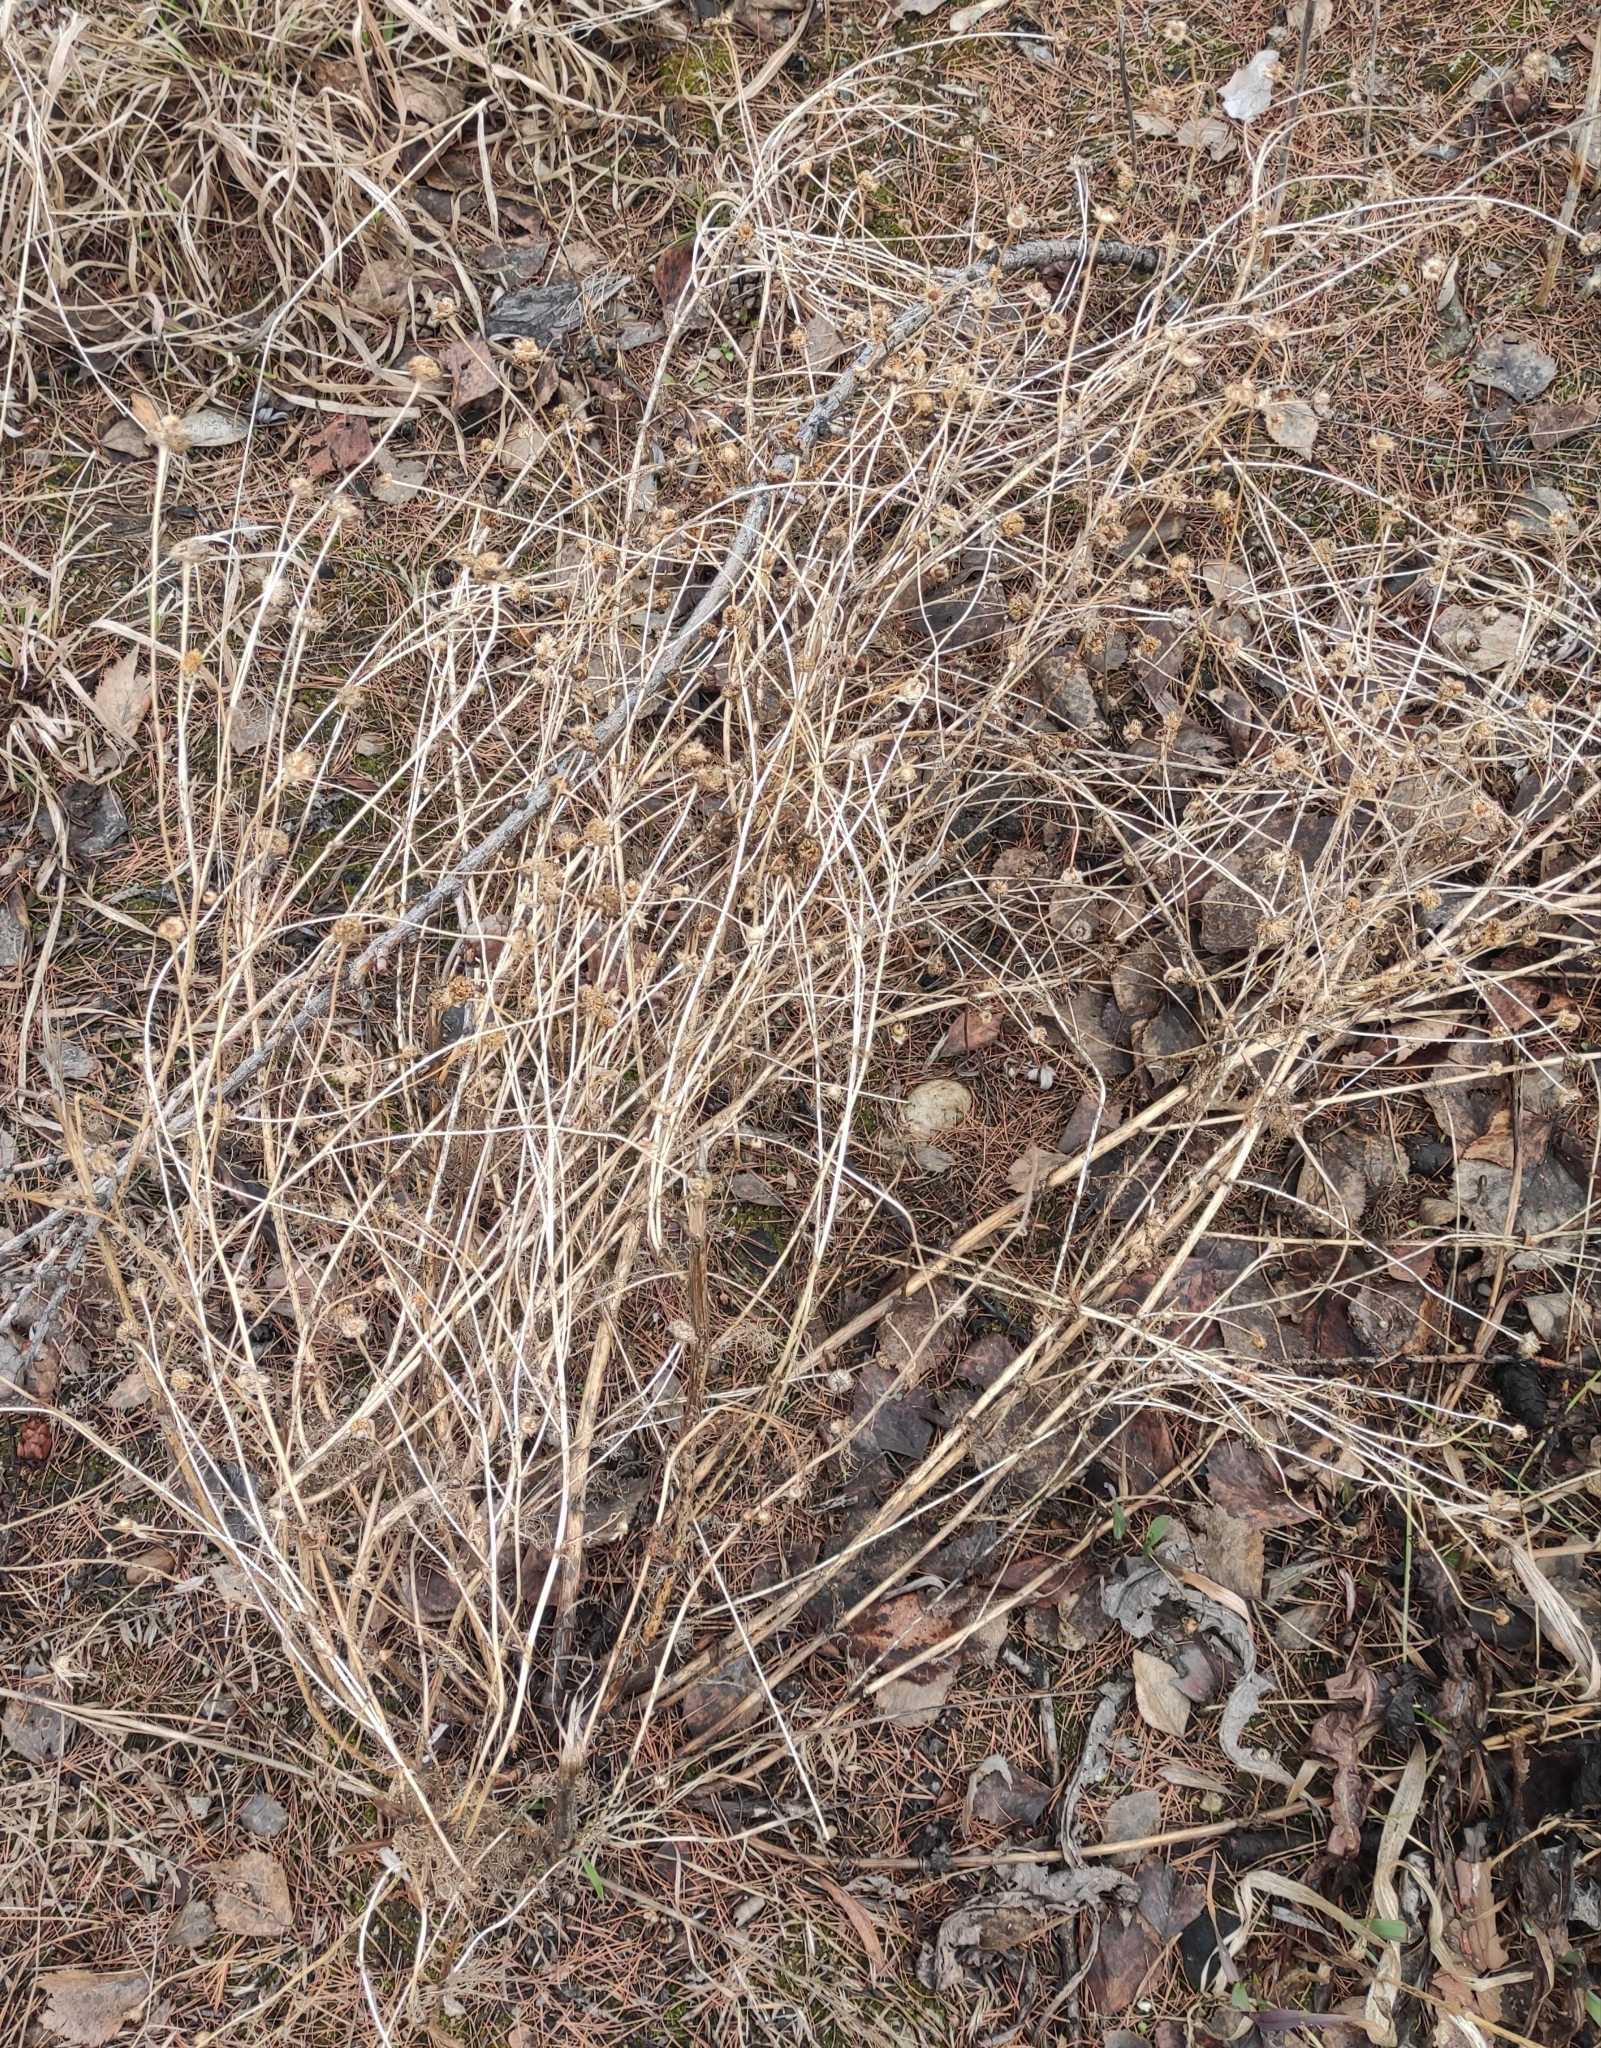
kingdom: Plantae
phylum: Tracheophyta
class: Magnoliopsida
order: Asterales
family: Asteraceae
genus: Tripleurospermum
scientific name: Tripleurospermum inodorum
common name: Scentless mayweed
